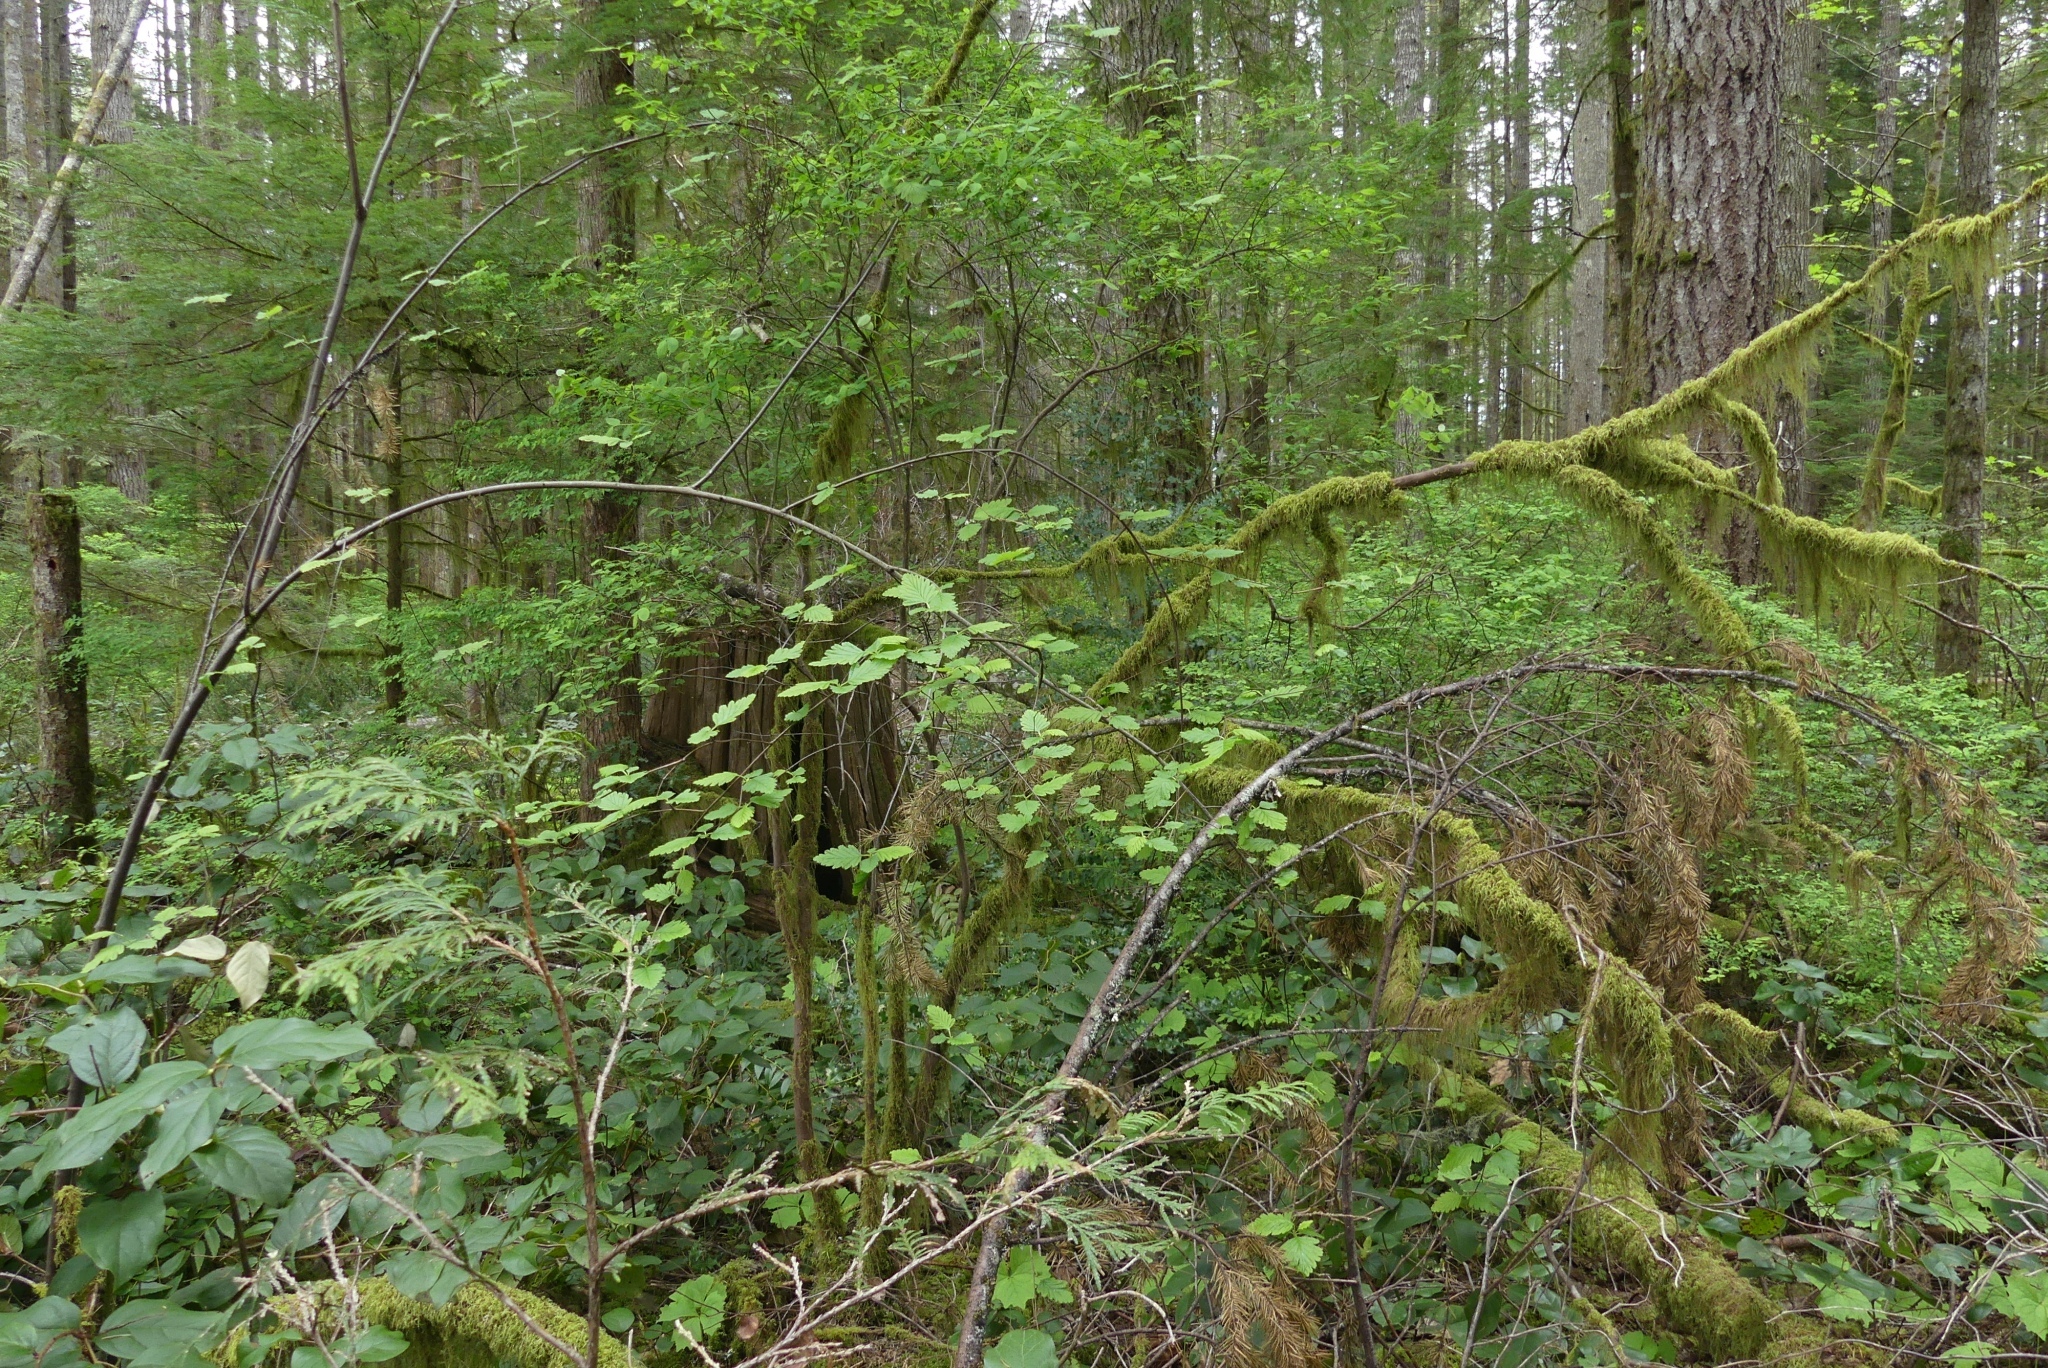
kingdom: Plantae
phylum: Tracheophyta
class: Magnoliopsida
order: Rosales
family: Rosaceae
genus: Holodiscus
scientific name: Holodiscus discolor
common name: Oceanspray
